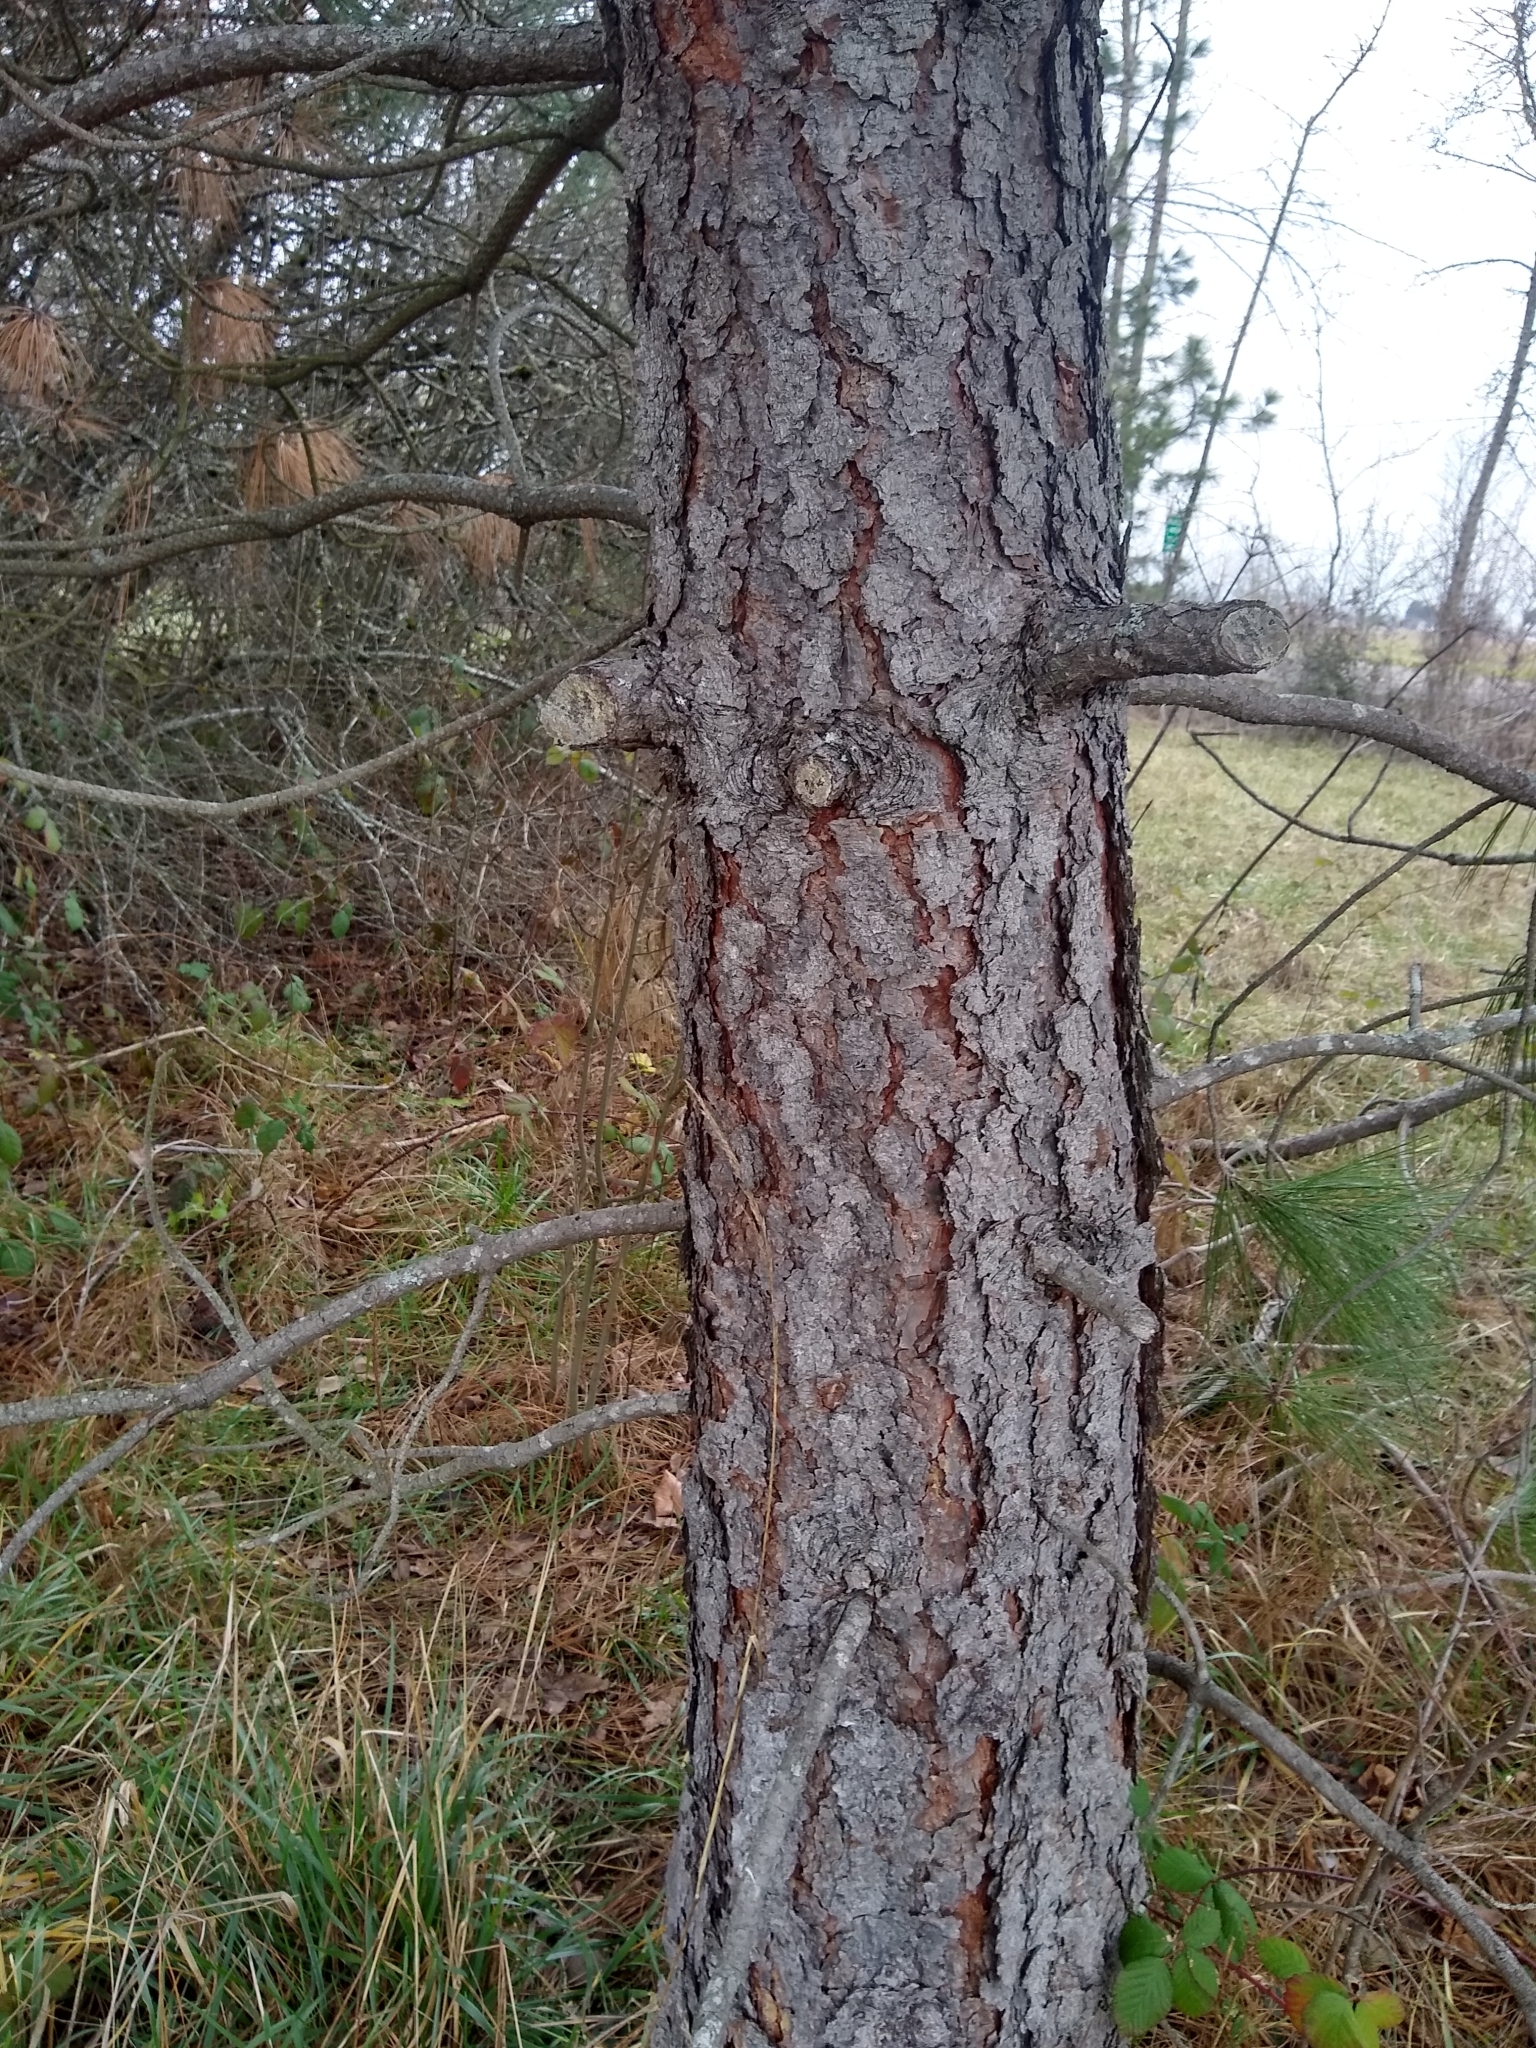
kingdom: Plantae
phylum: Tracheophyta
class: Pinopsida
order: Pinales
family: Pinaceae
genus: Pinus
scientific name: Pinus ponderosa
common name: Western yellow-pine
